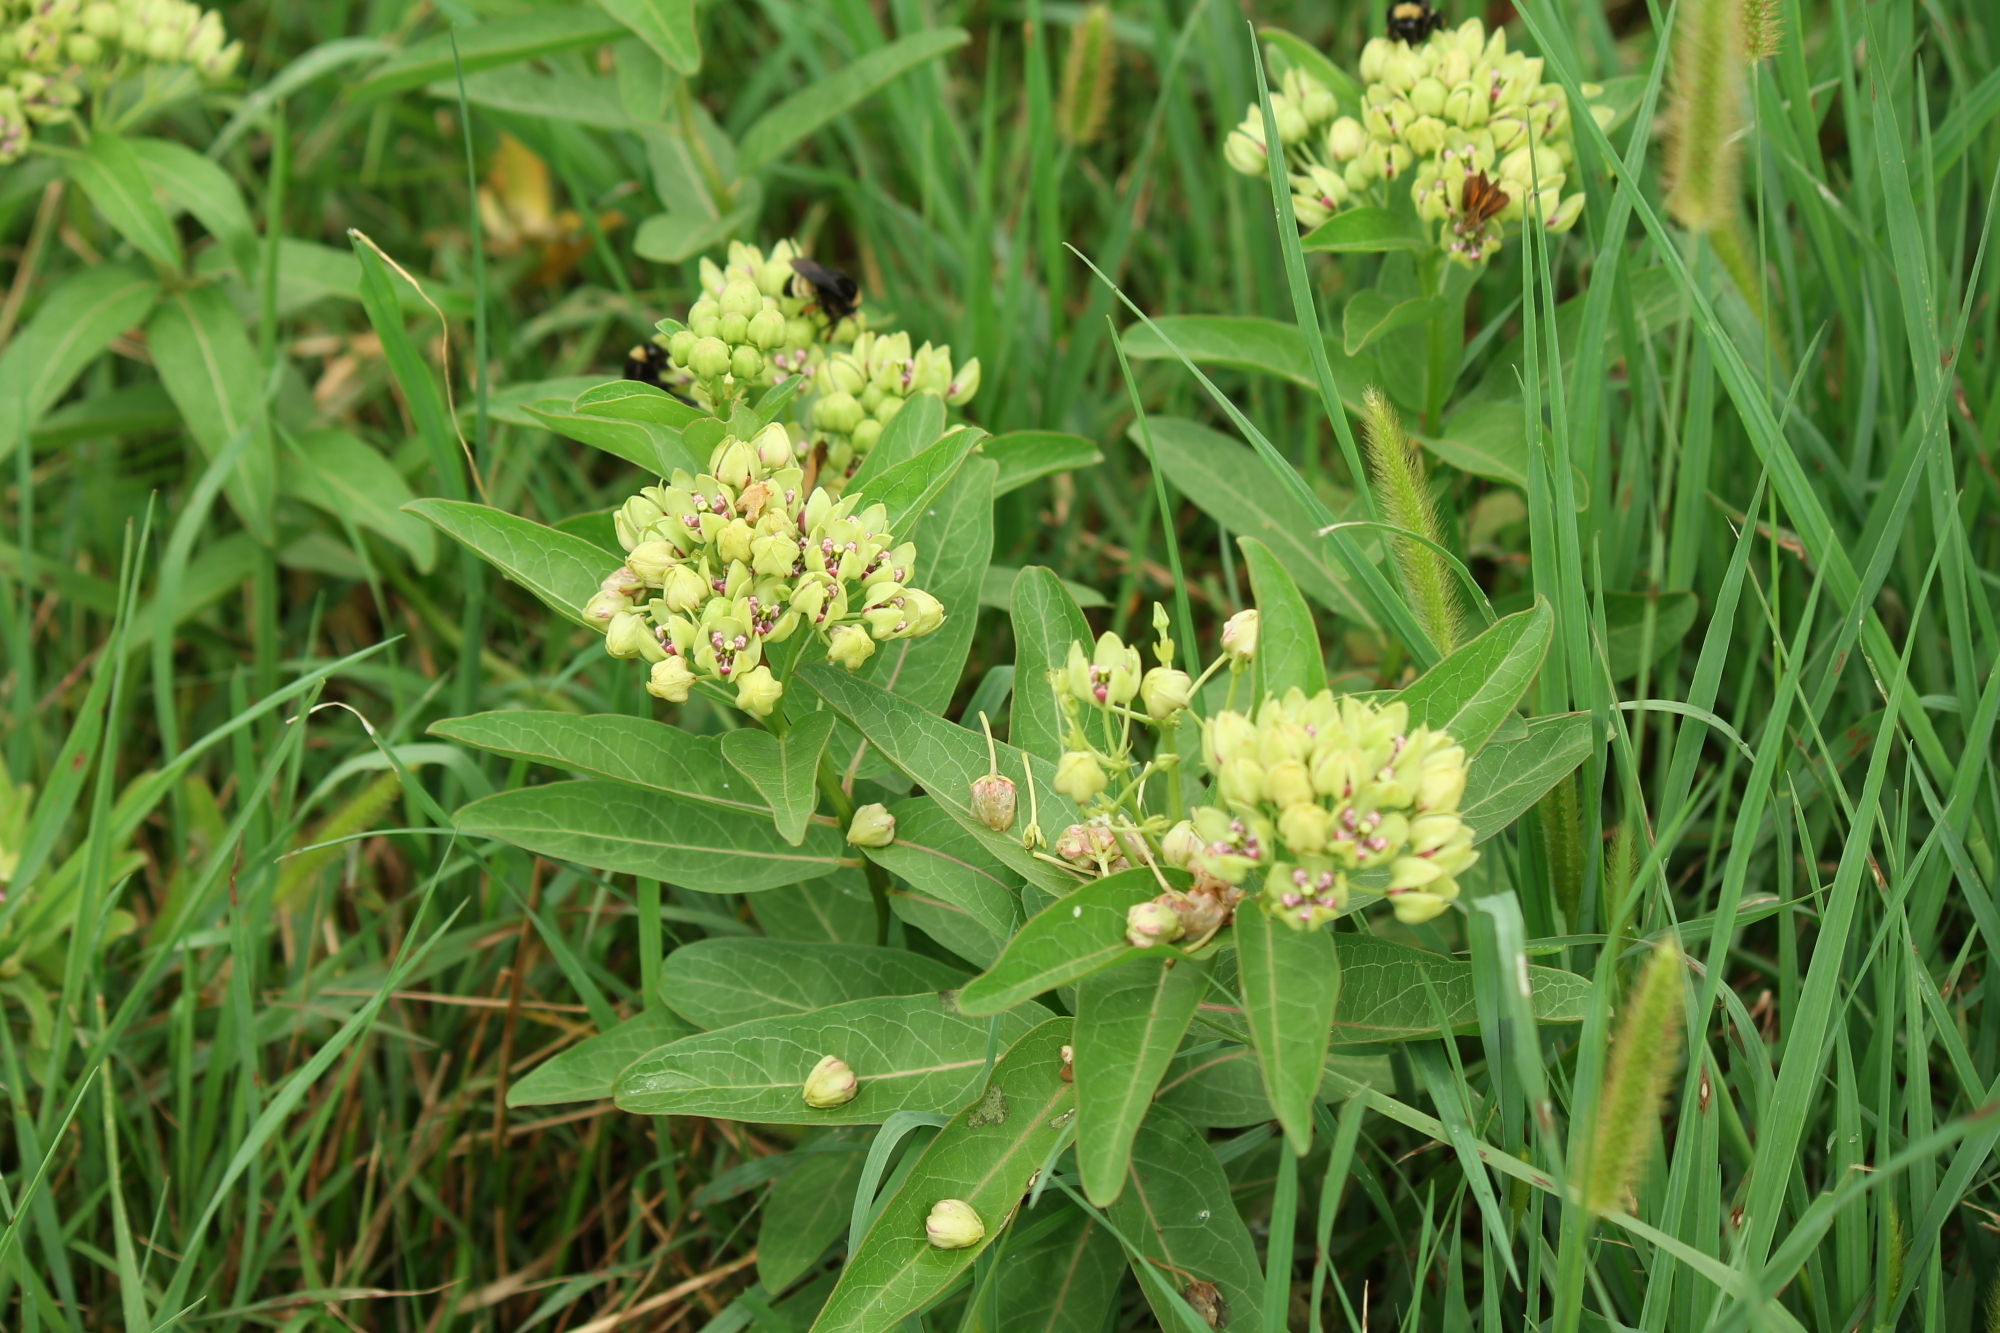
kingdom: Plantae
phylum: Tracheophyta
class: Magnoliopsida
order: Gentianales
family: Apocynaceae
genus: Asclepias
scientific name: Asclepias viridis
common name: Antelope-horns
